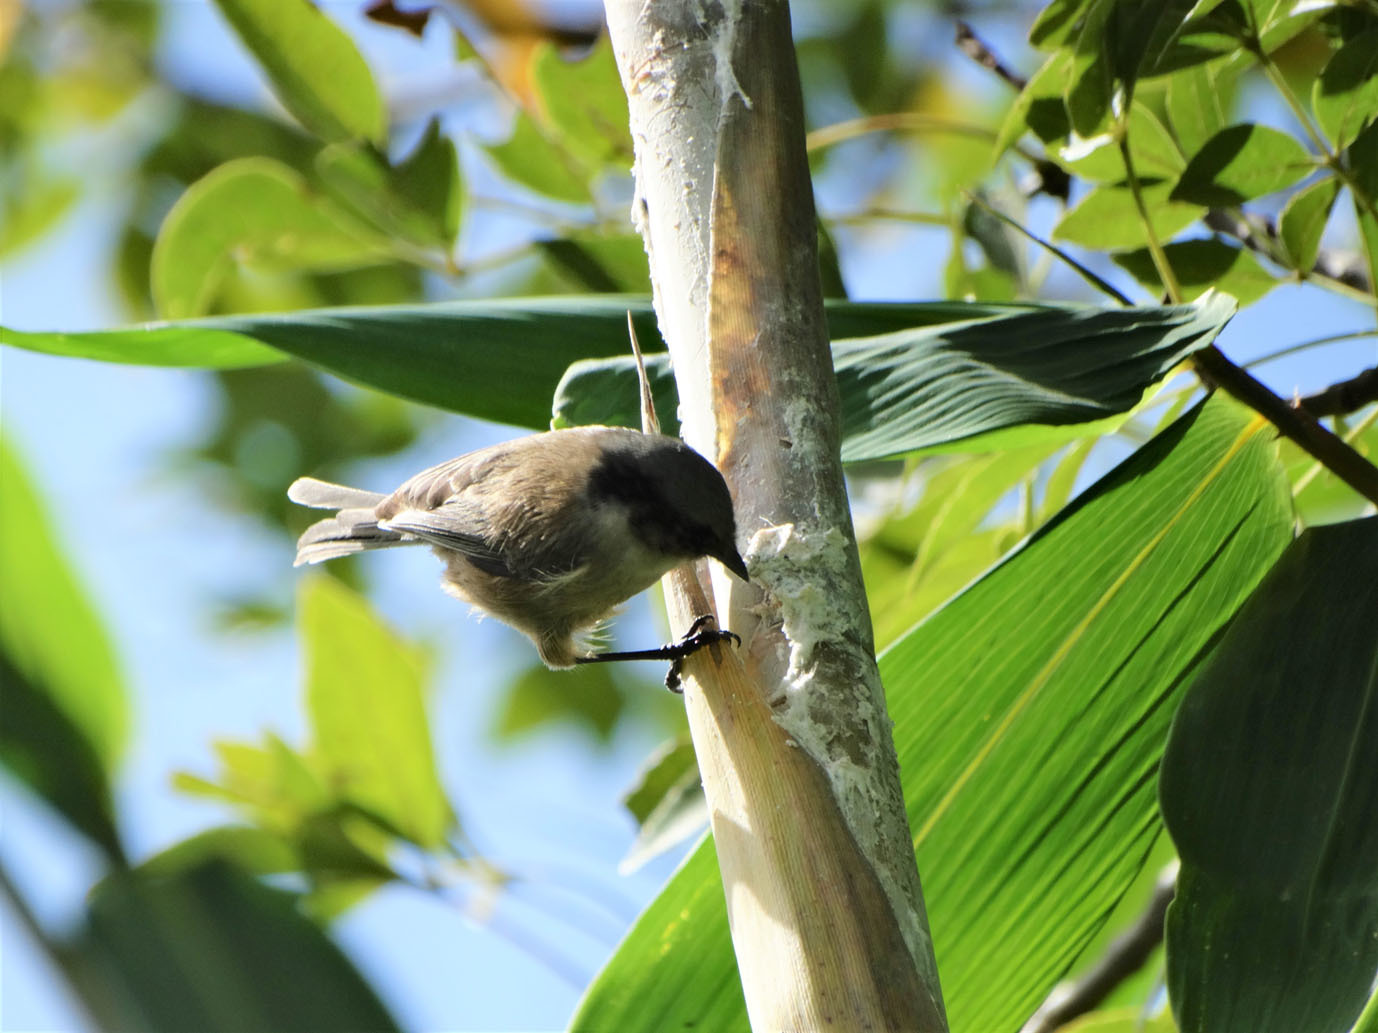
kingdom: Animalia
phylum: Chordata
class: Aves
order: Passeriformes
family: Aegithalidae
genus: Psaltriparus
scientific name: Psaltriparus minimus
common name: American bushtit
